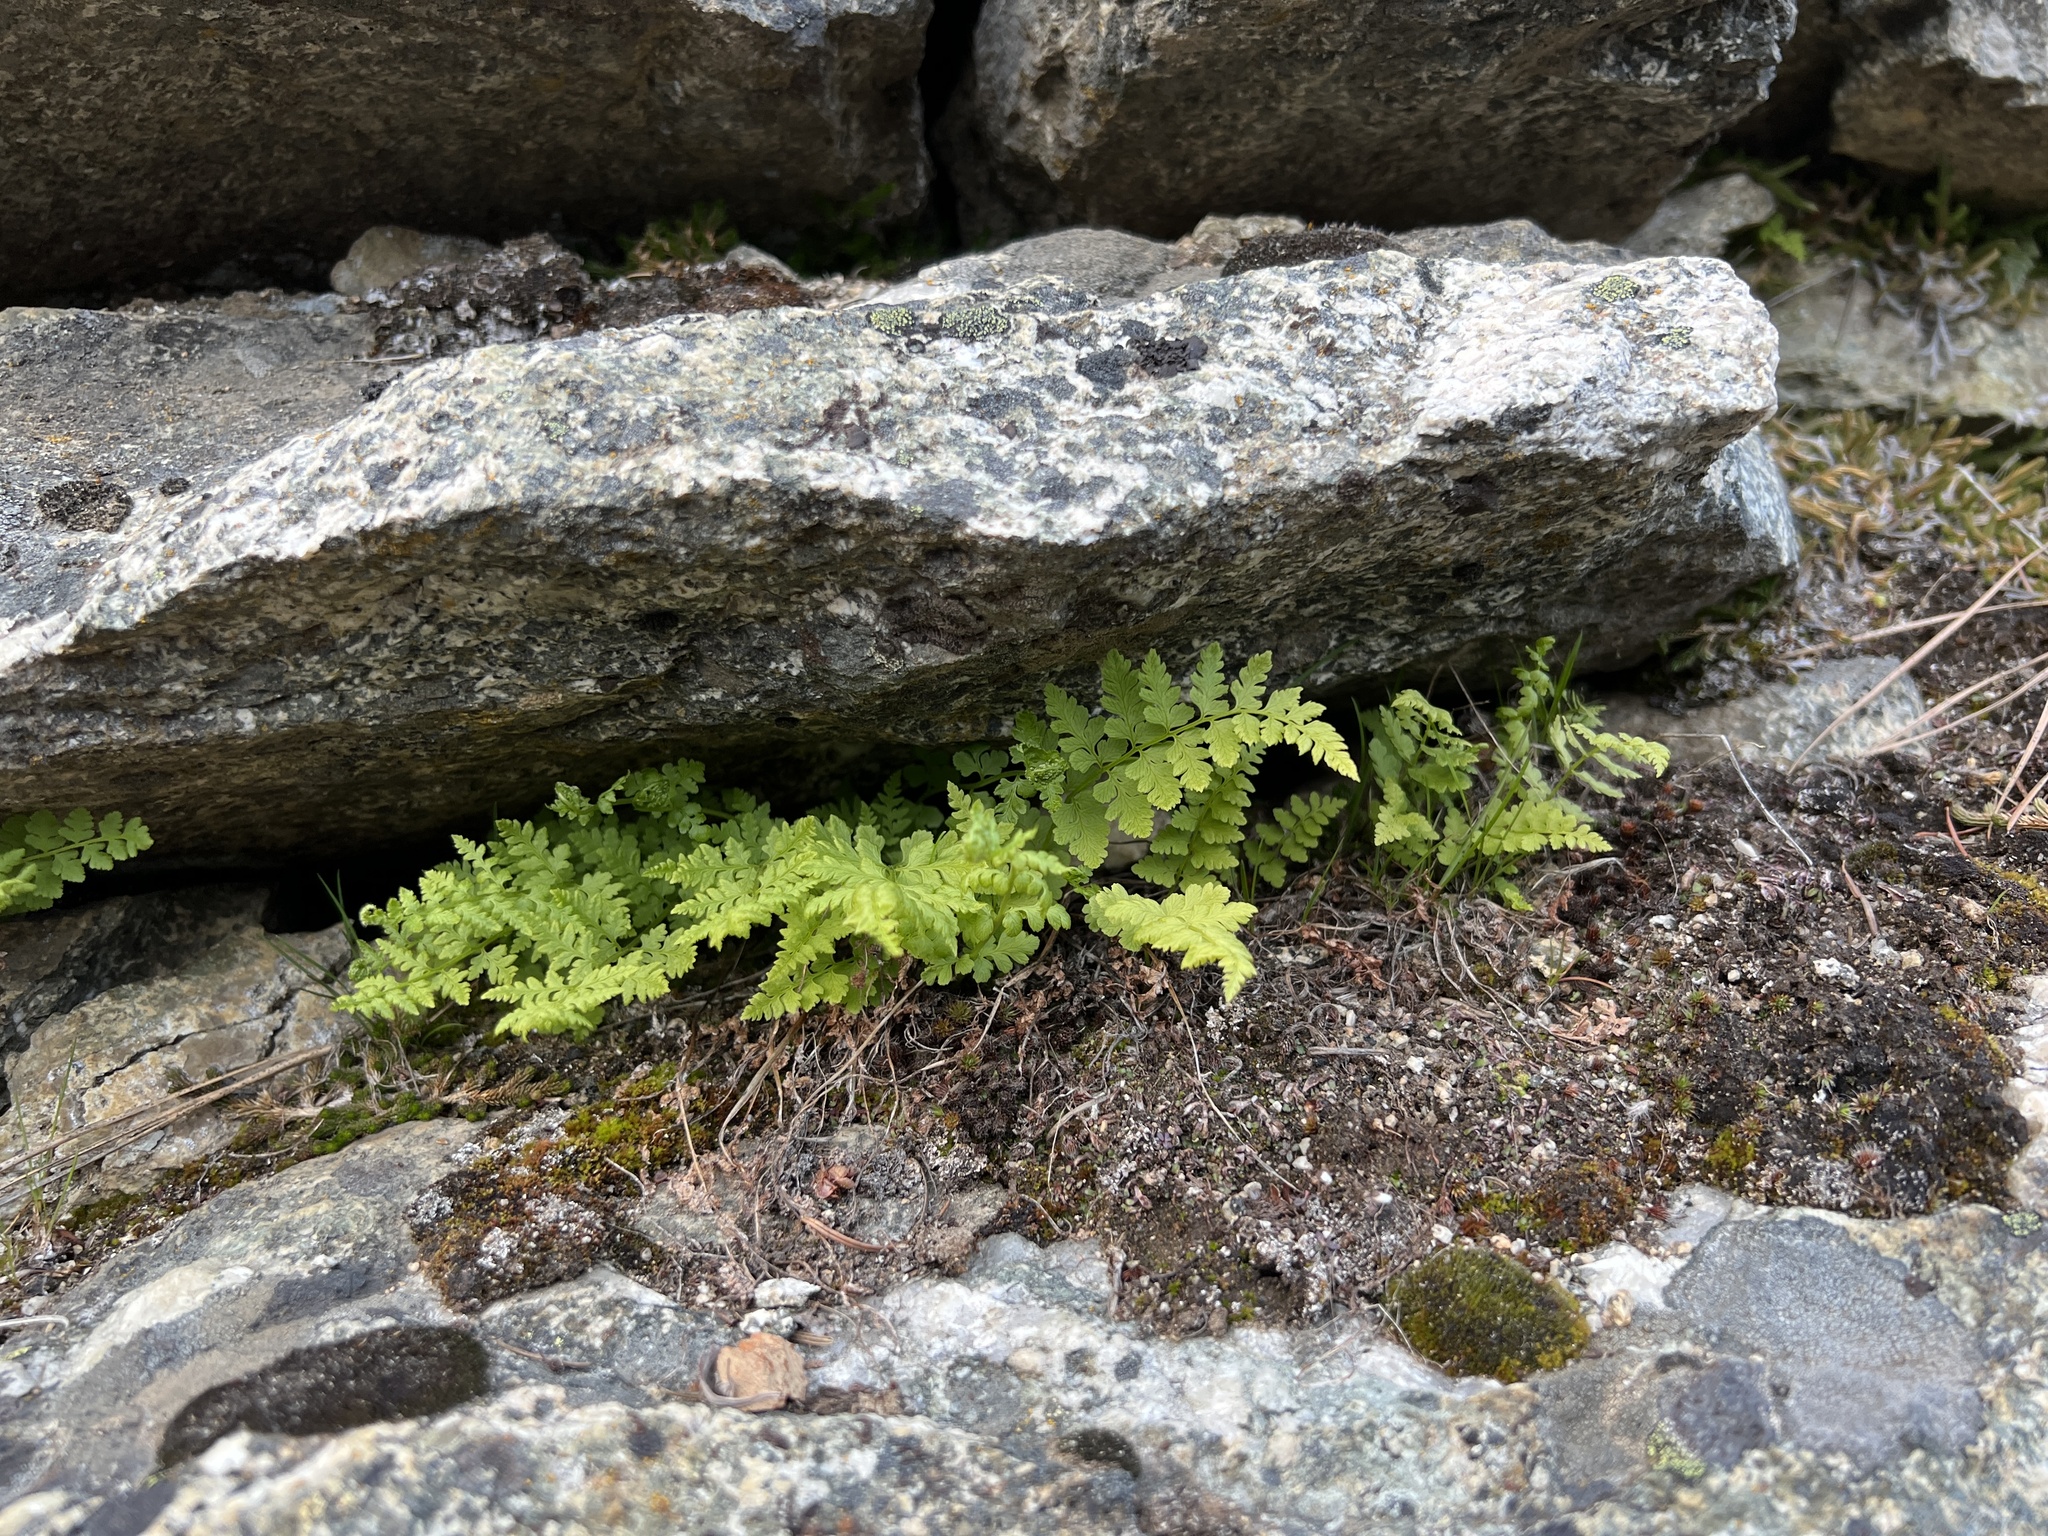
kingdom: Plantae
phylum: Tracheophyta
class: Polypodiopsida
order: Polypodiales
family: Cystopteridaceae
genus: Cystopteris
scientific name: Cystopteris fragilis
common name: Brittle bladder fern
